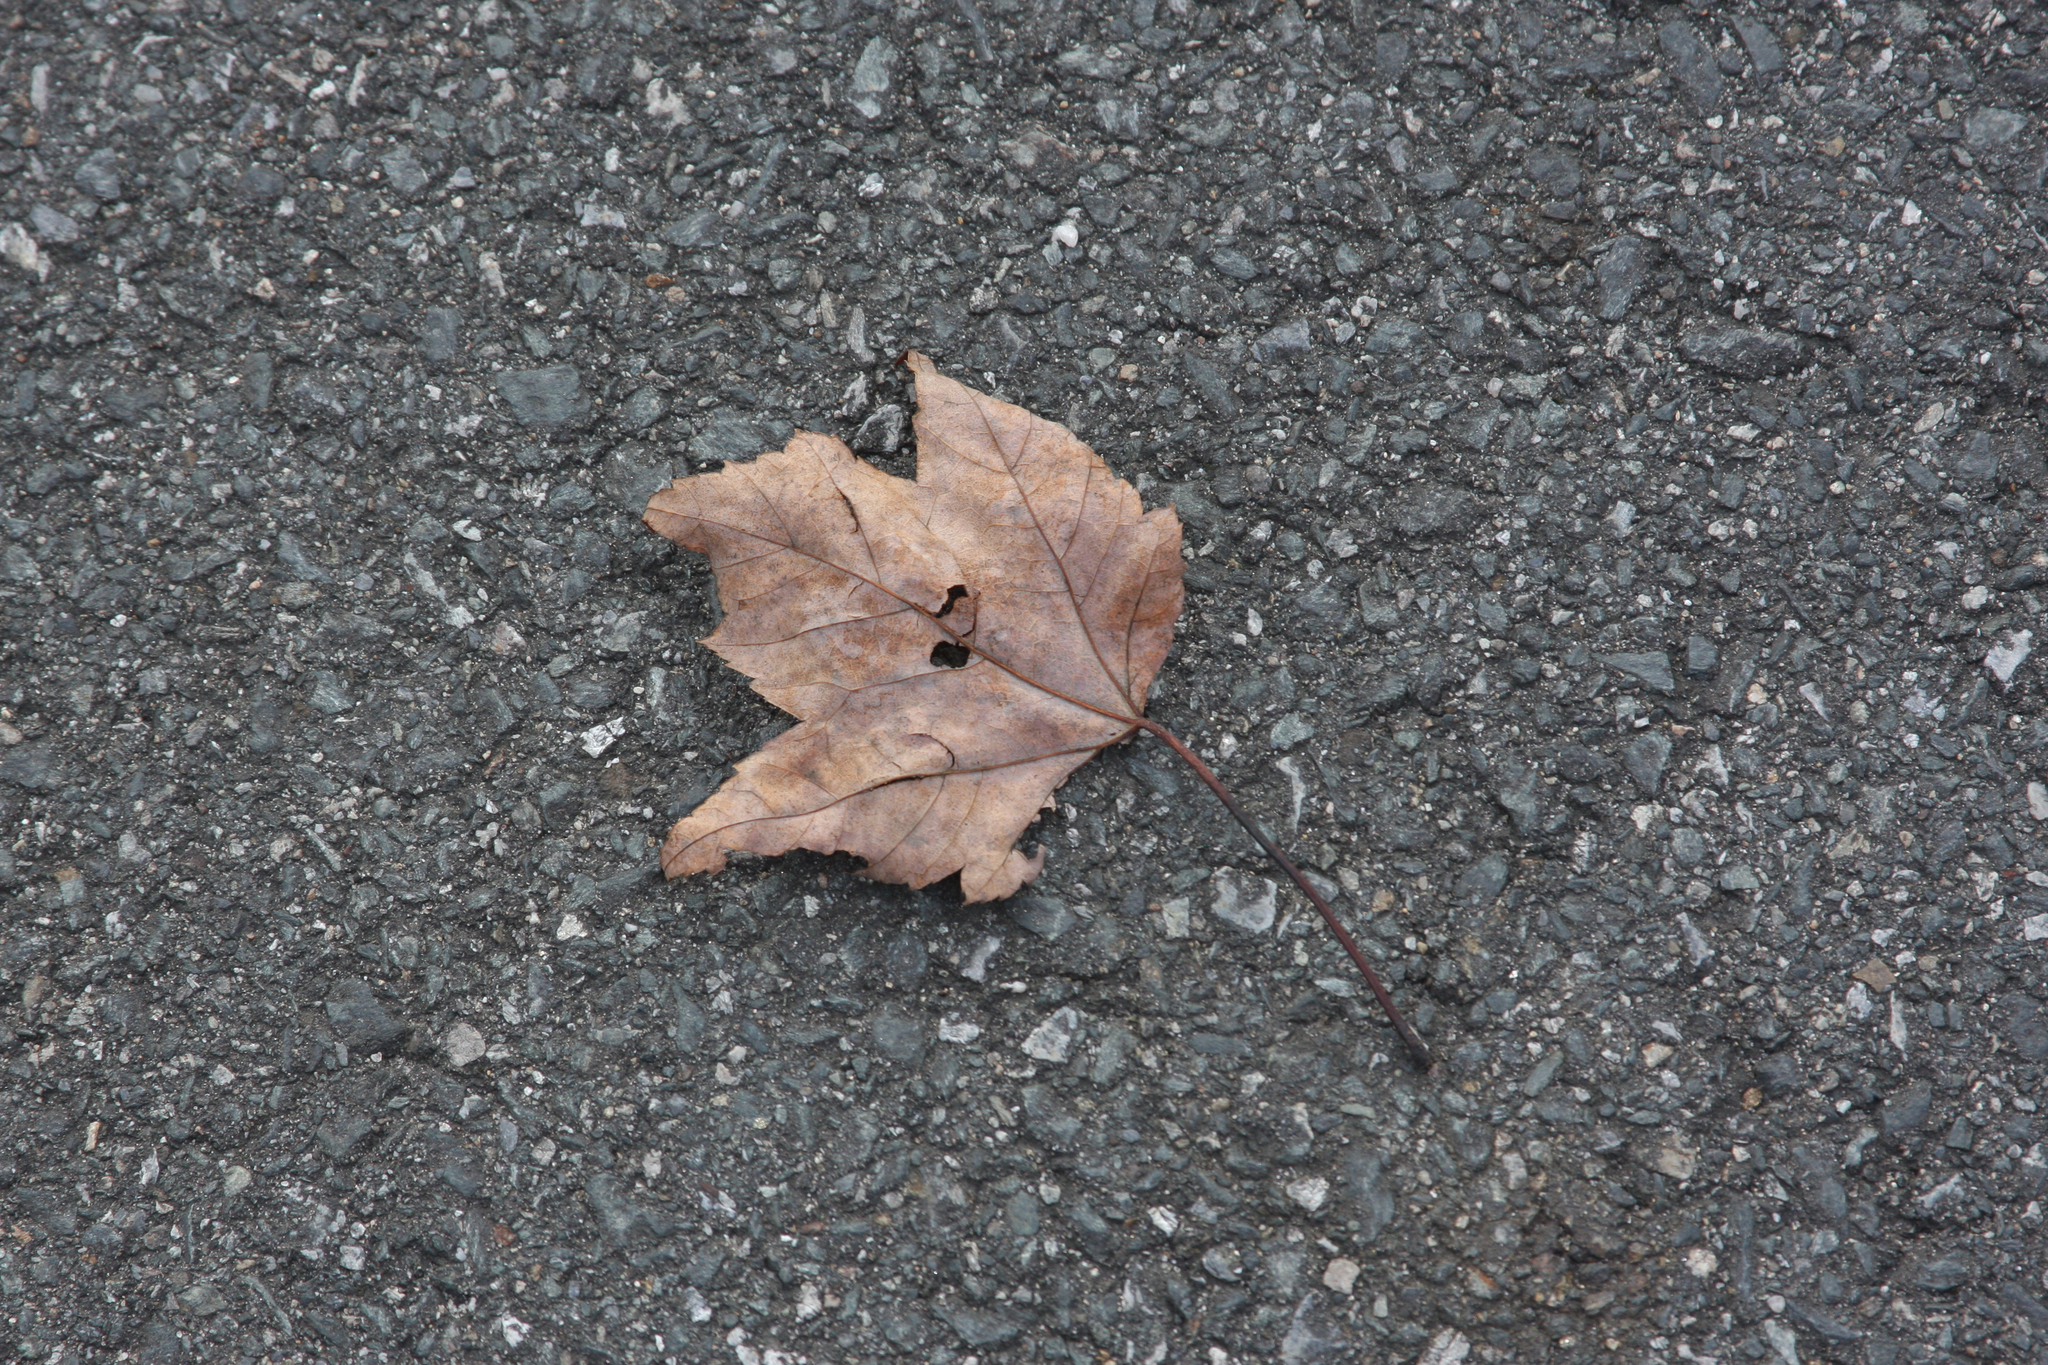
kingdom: Plantae
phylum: Tracheophyta
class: Magnoliopsida
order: Sapindales
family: Sapindaceae
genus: Acer
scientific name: Acer rubrum
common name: Red maple
